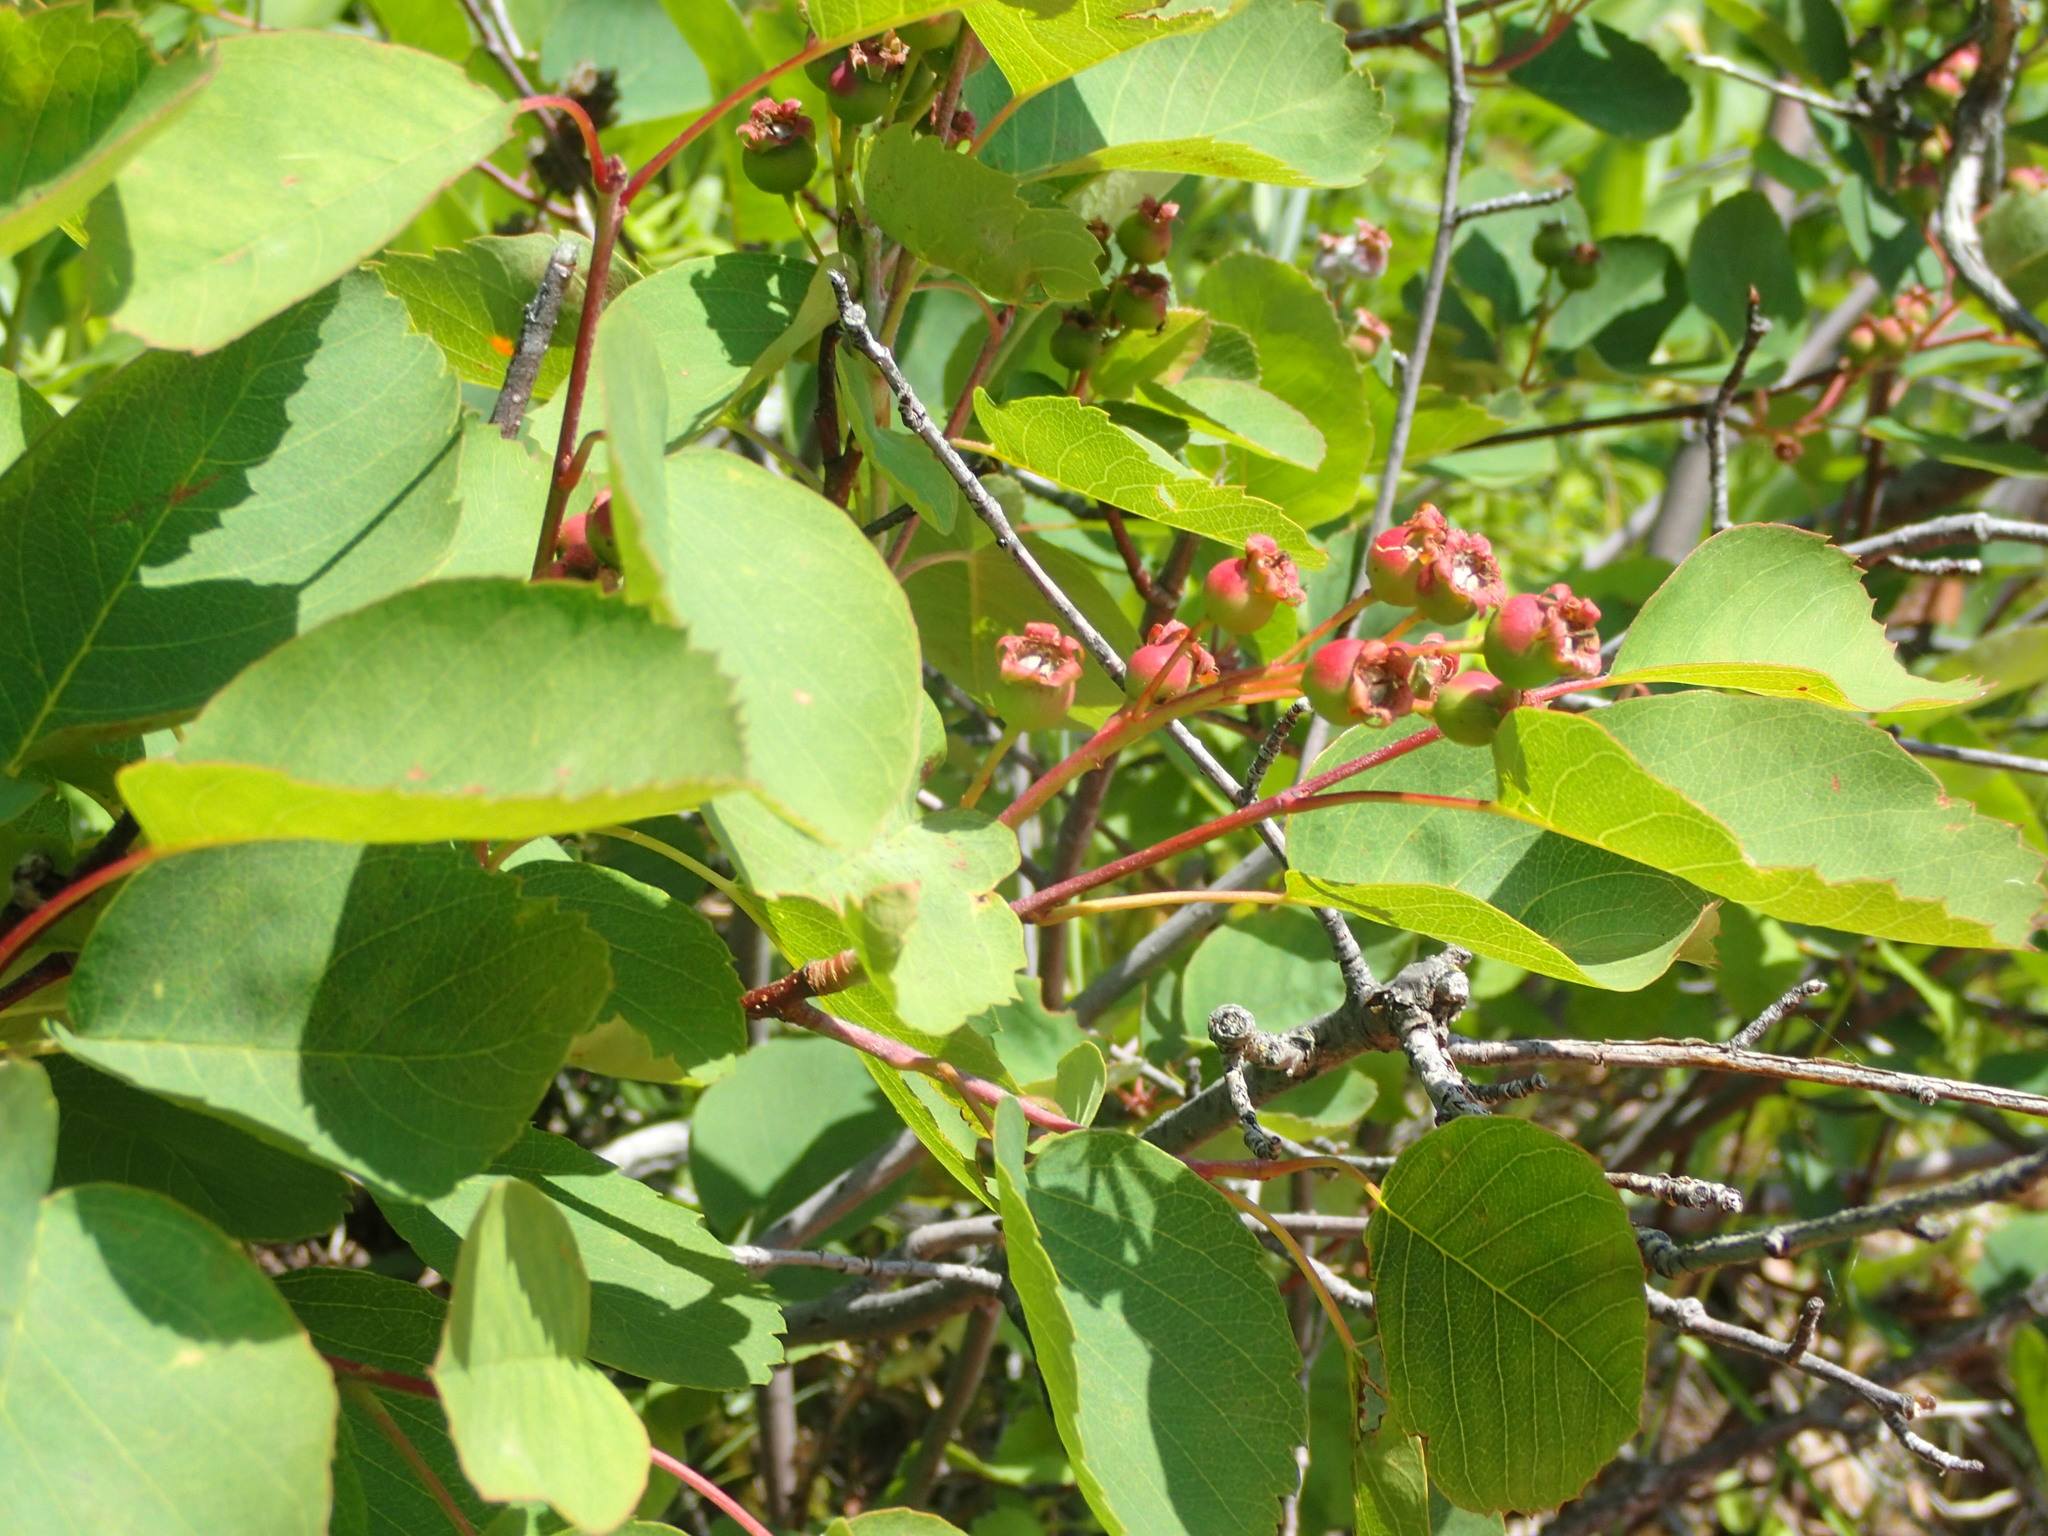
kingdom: Plantae
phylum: Tracheophyta
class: Magnoliopsida
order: Rosales
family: Rosaceae
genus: Amelanchier
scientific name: Amelanchier alnifolia
